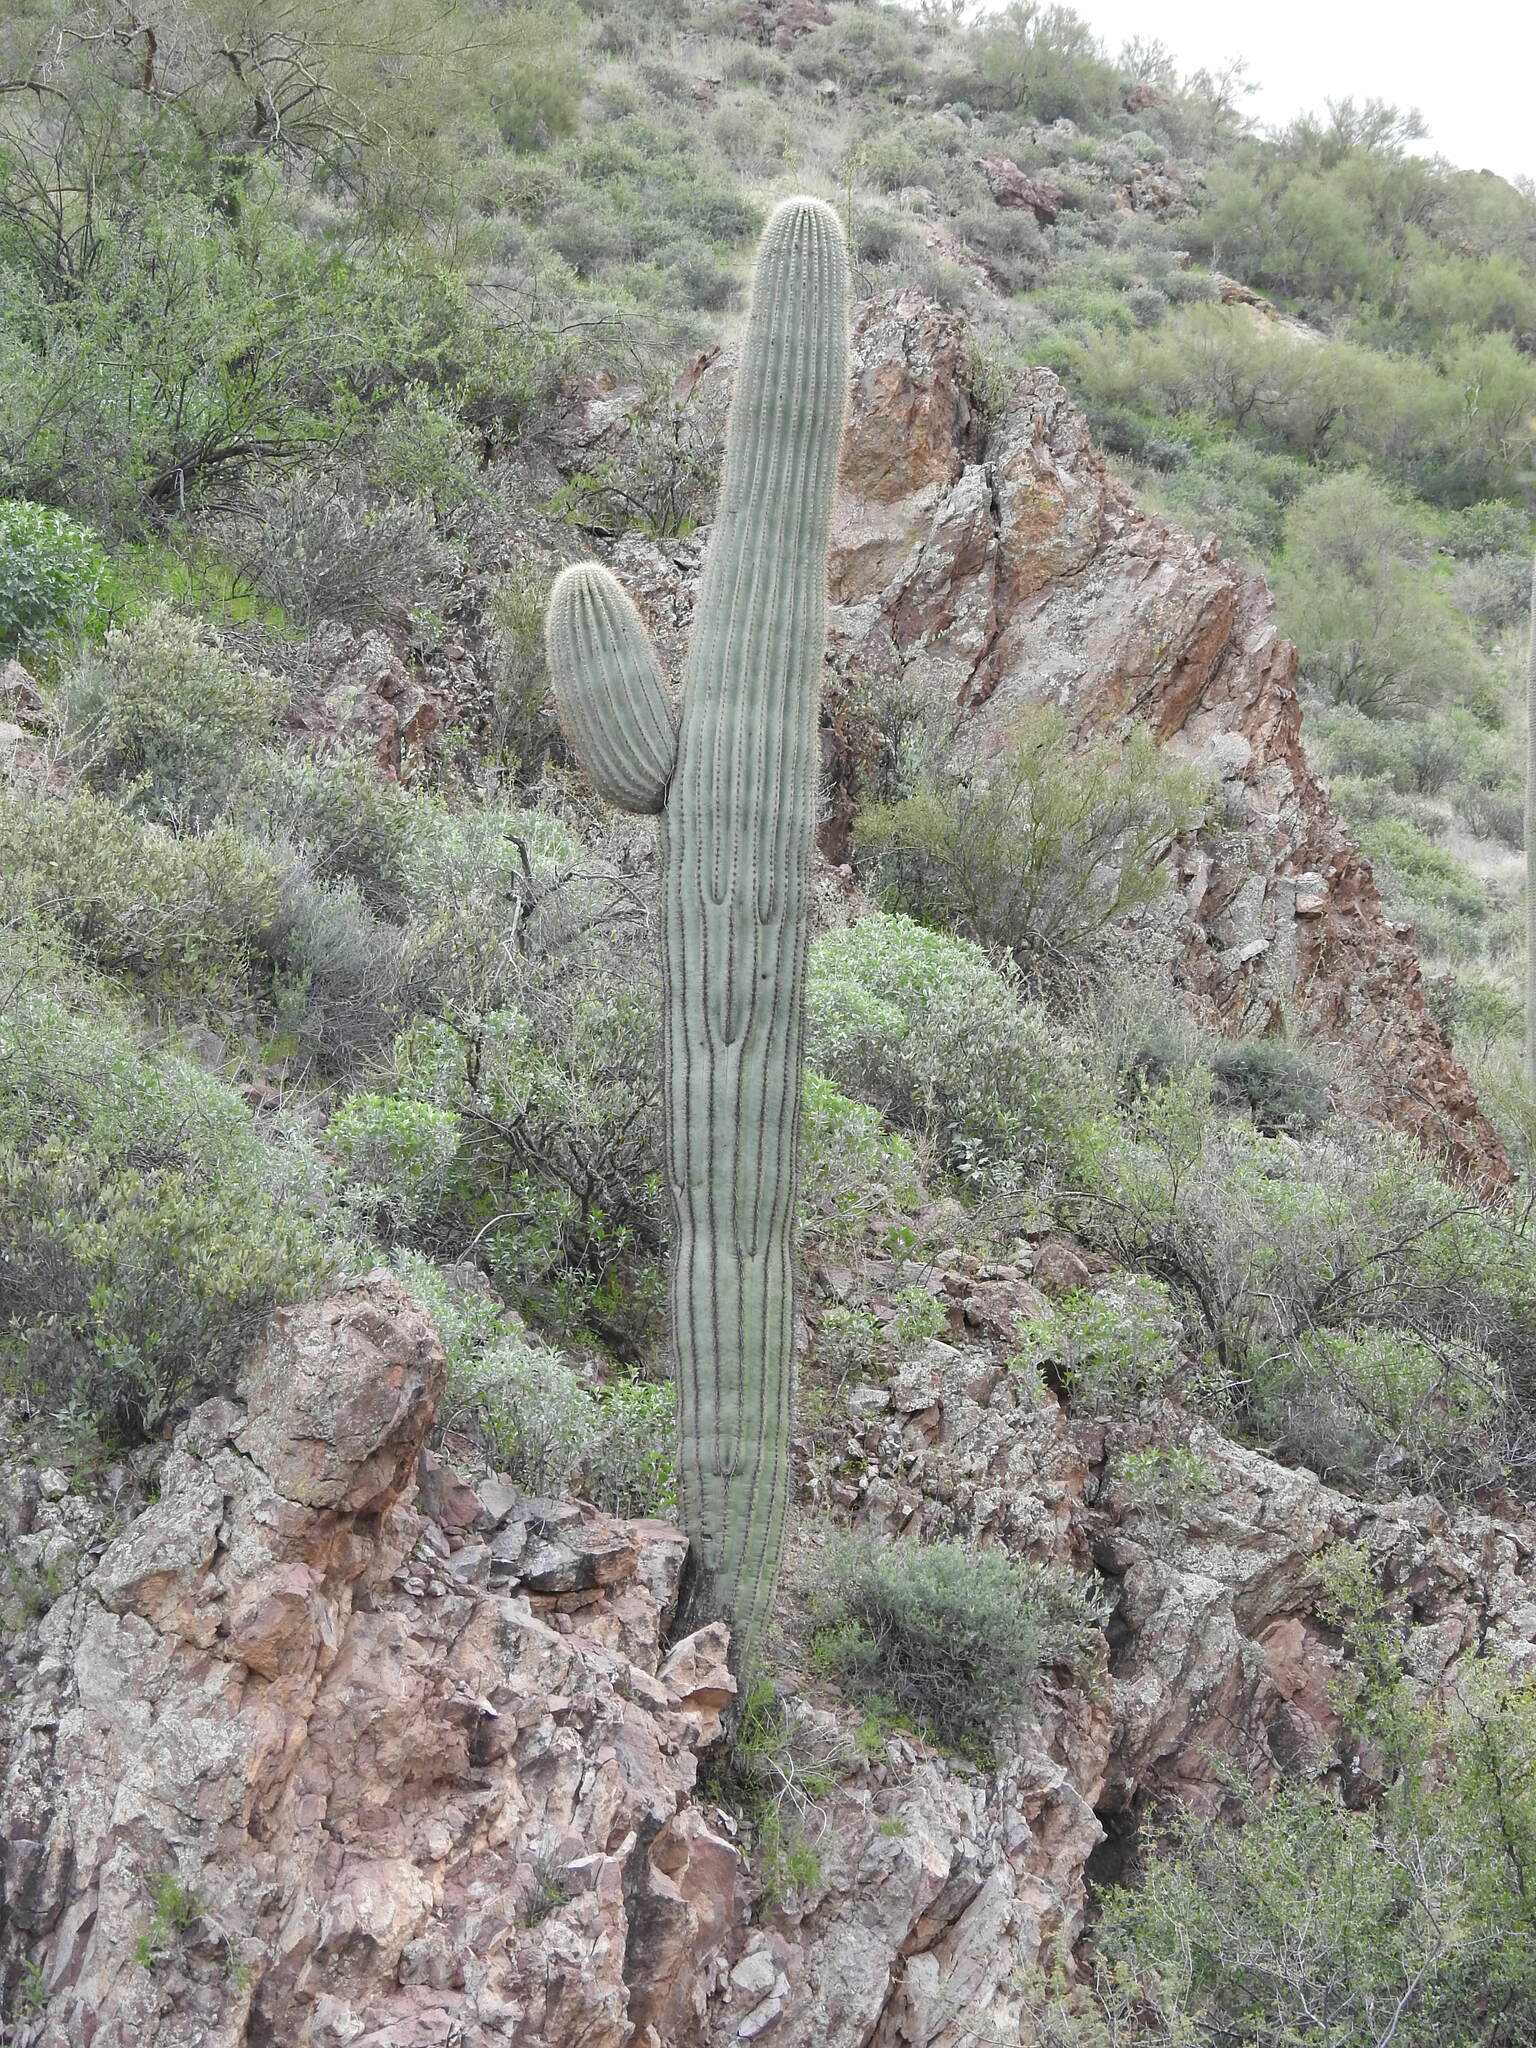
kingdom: Plantae
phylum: Tracheophyta
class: Magnoliopsida
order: Caryophyllales
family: Cactaceae
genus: Carnegiea
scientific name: Carnegiea gigantea
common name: Saguaro
